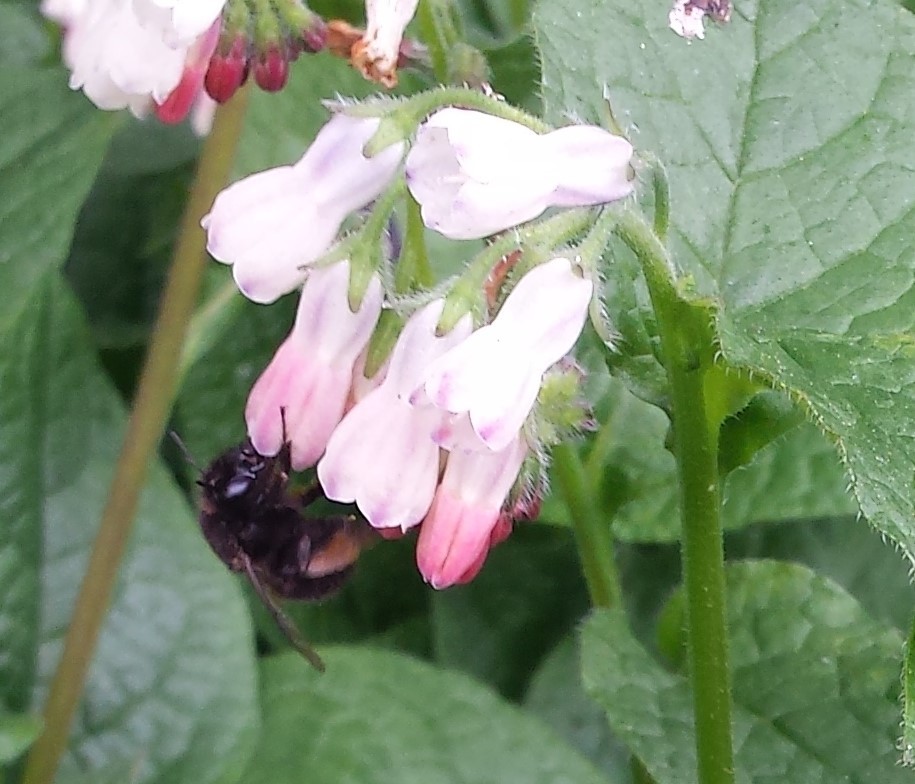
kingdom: Animalia
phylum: Arthropoda
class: Insecta
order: Hymenoptera
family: Apidae
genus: Anthophora
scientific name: Anthophora plumipes
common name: Hairy-footed flower bee
